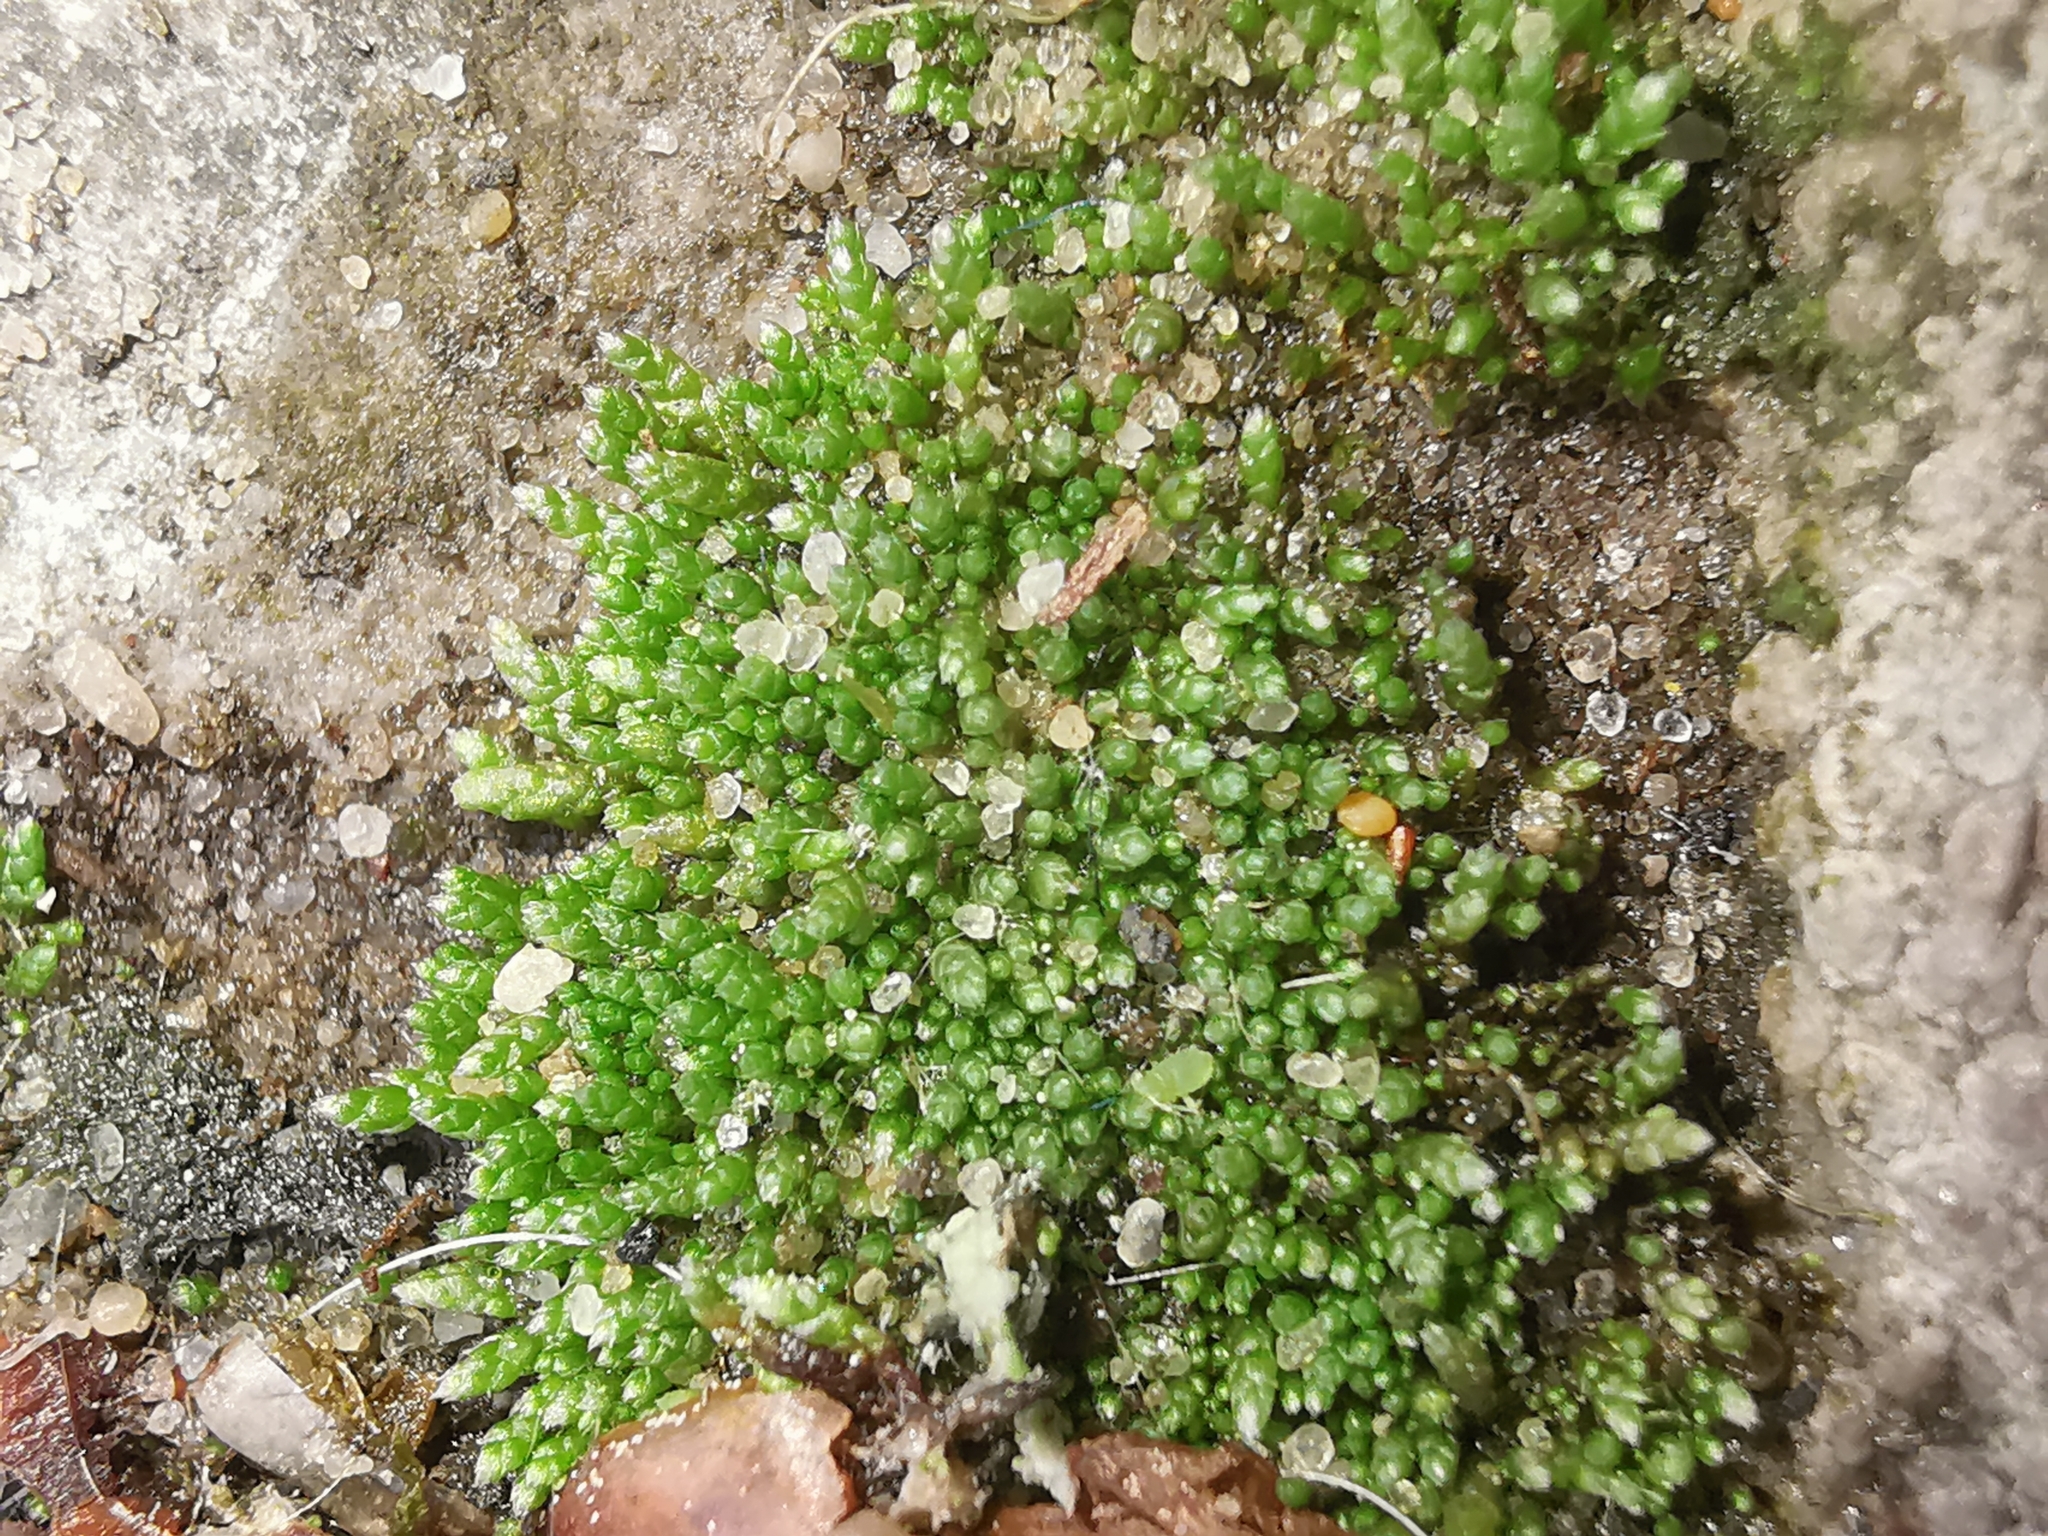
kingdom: Plantae
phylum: Bryophyta
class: Bryopsida
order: Bryales
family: Bryaceae
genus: Bryum
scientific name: Bryum argenteum
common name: Silver-moss
